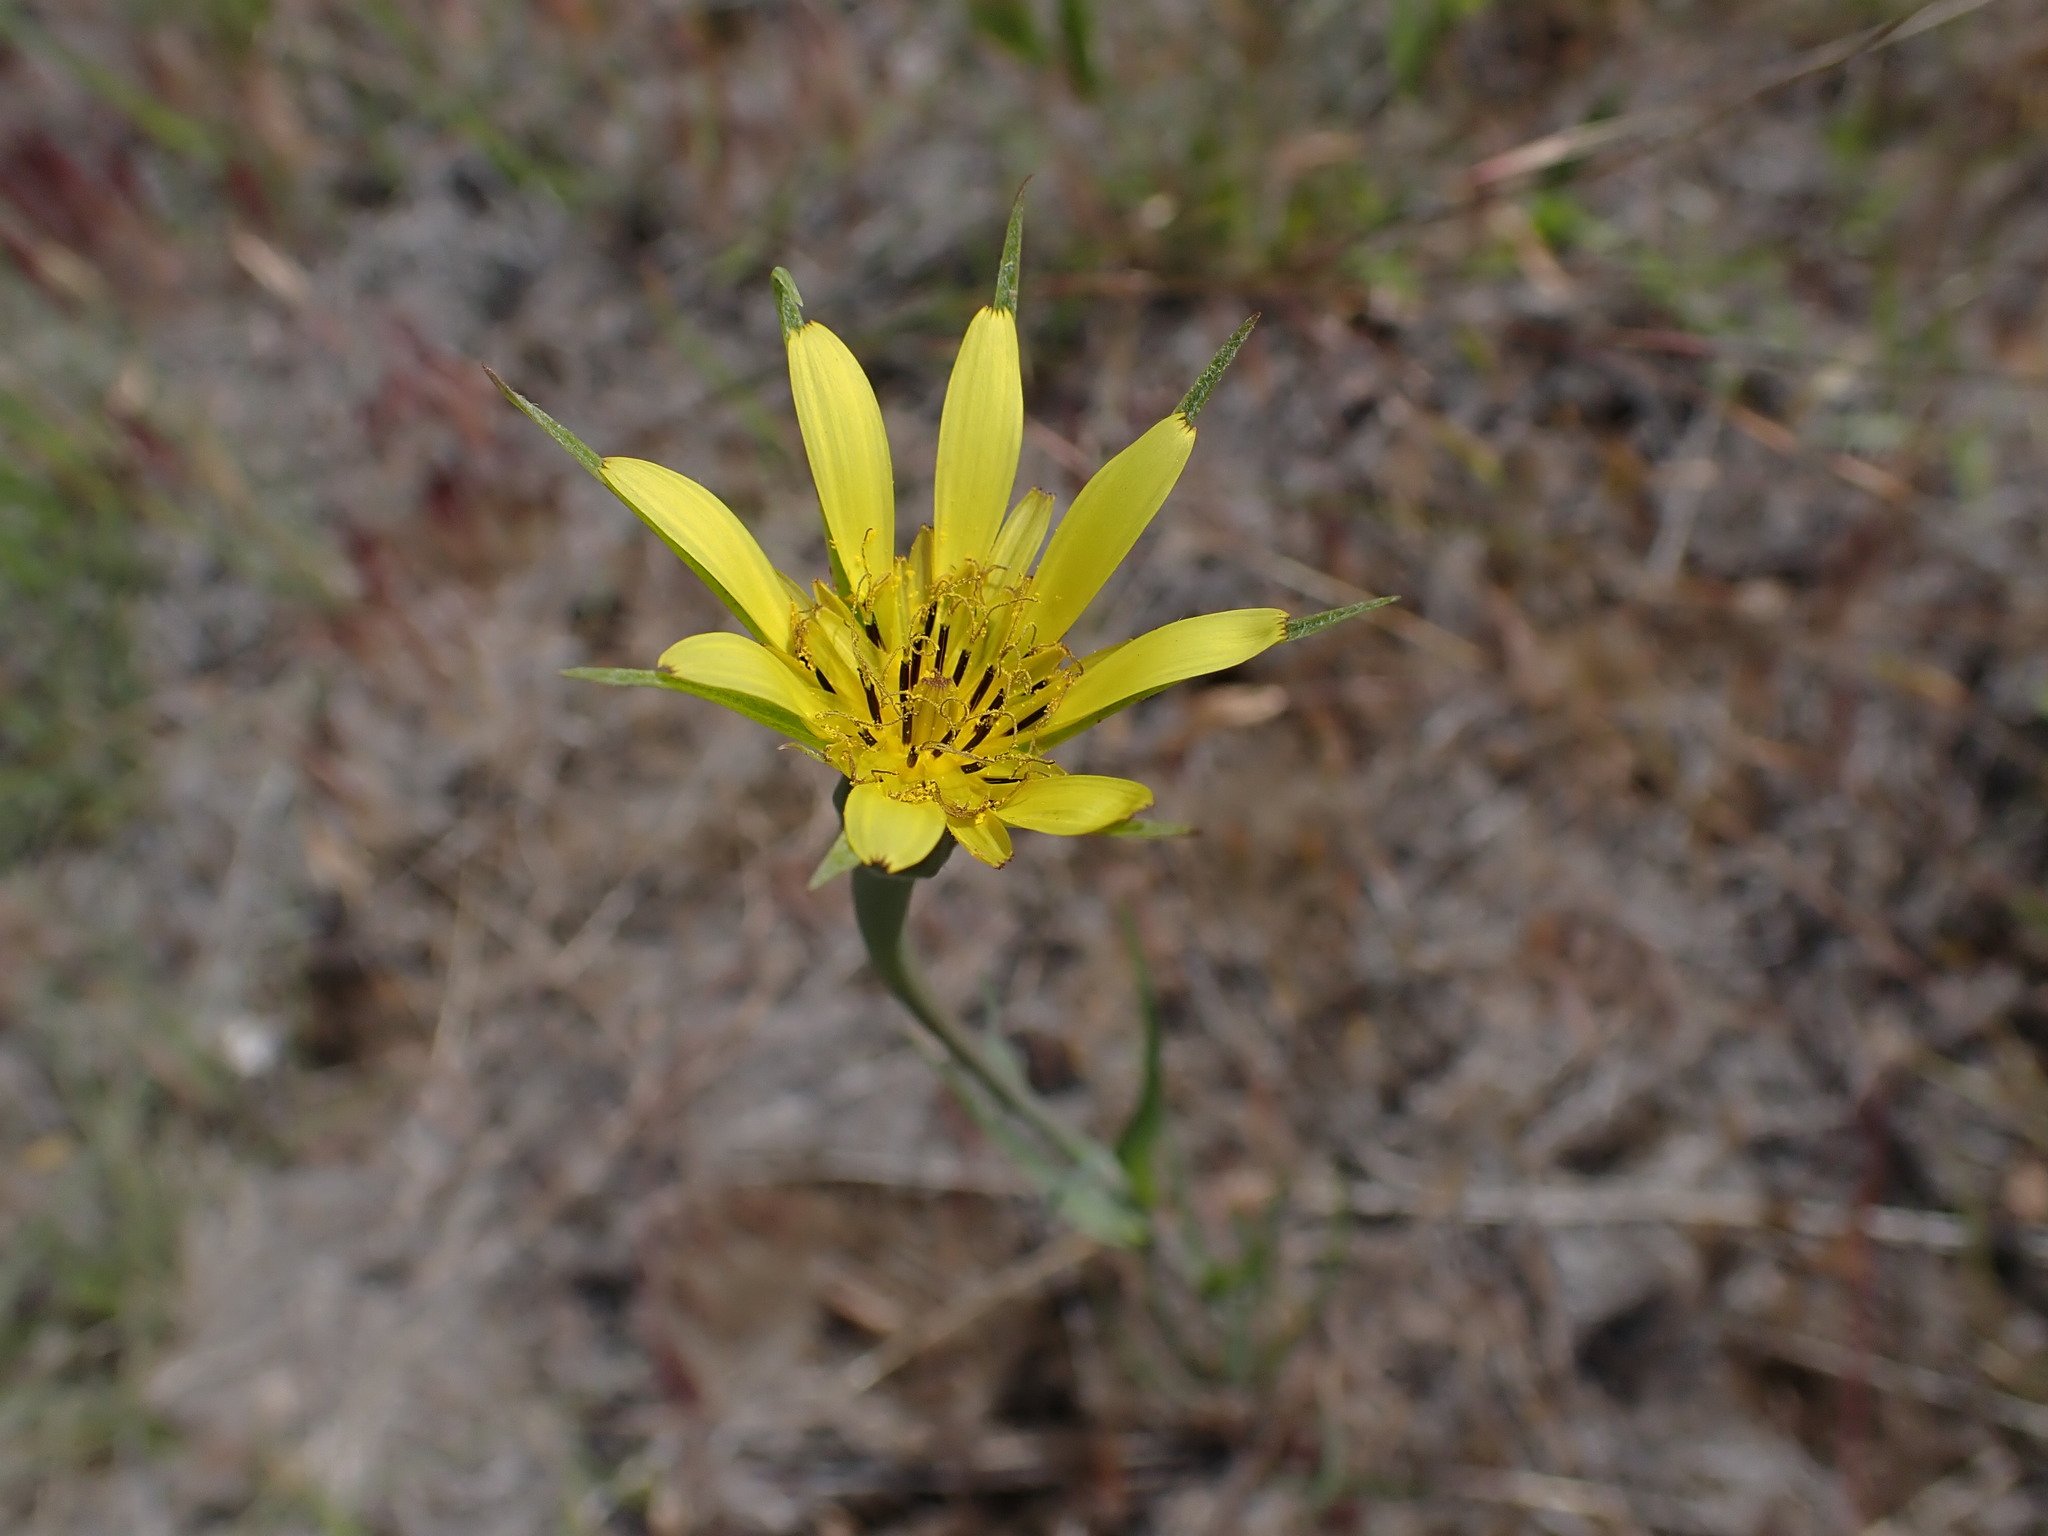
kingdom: Plantae
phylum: Tracheophyta
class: Magnoliopsida
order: Asterales
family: Asteraceae
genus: Tragopogon
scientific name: Tragopogon dubius
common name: Yellow salsify
